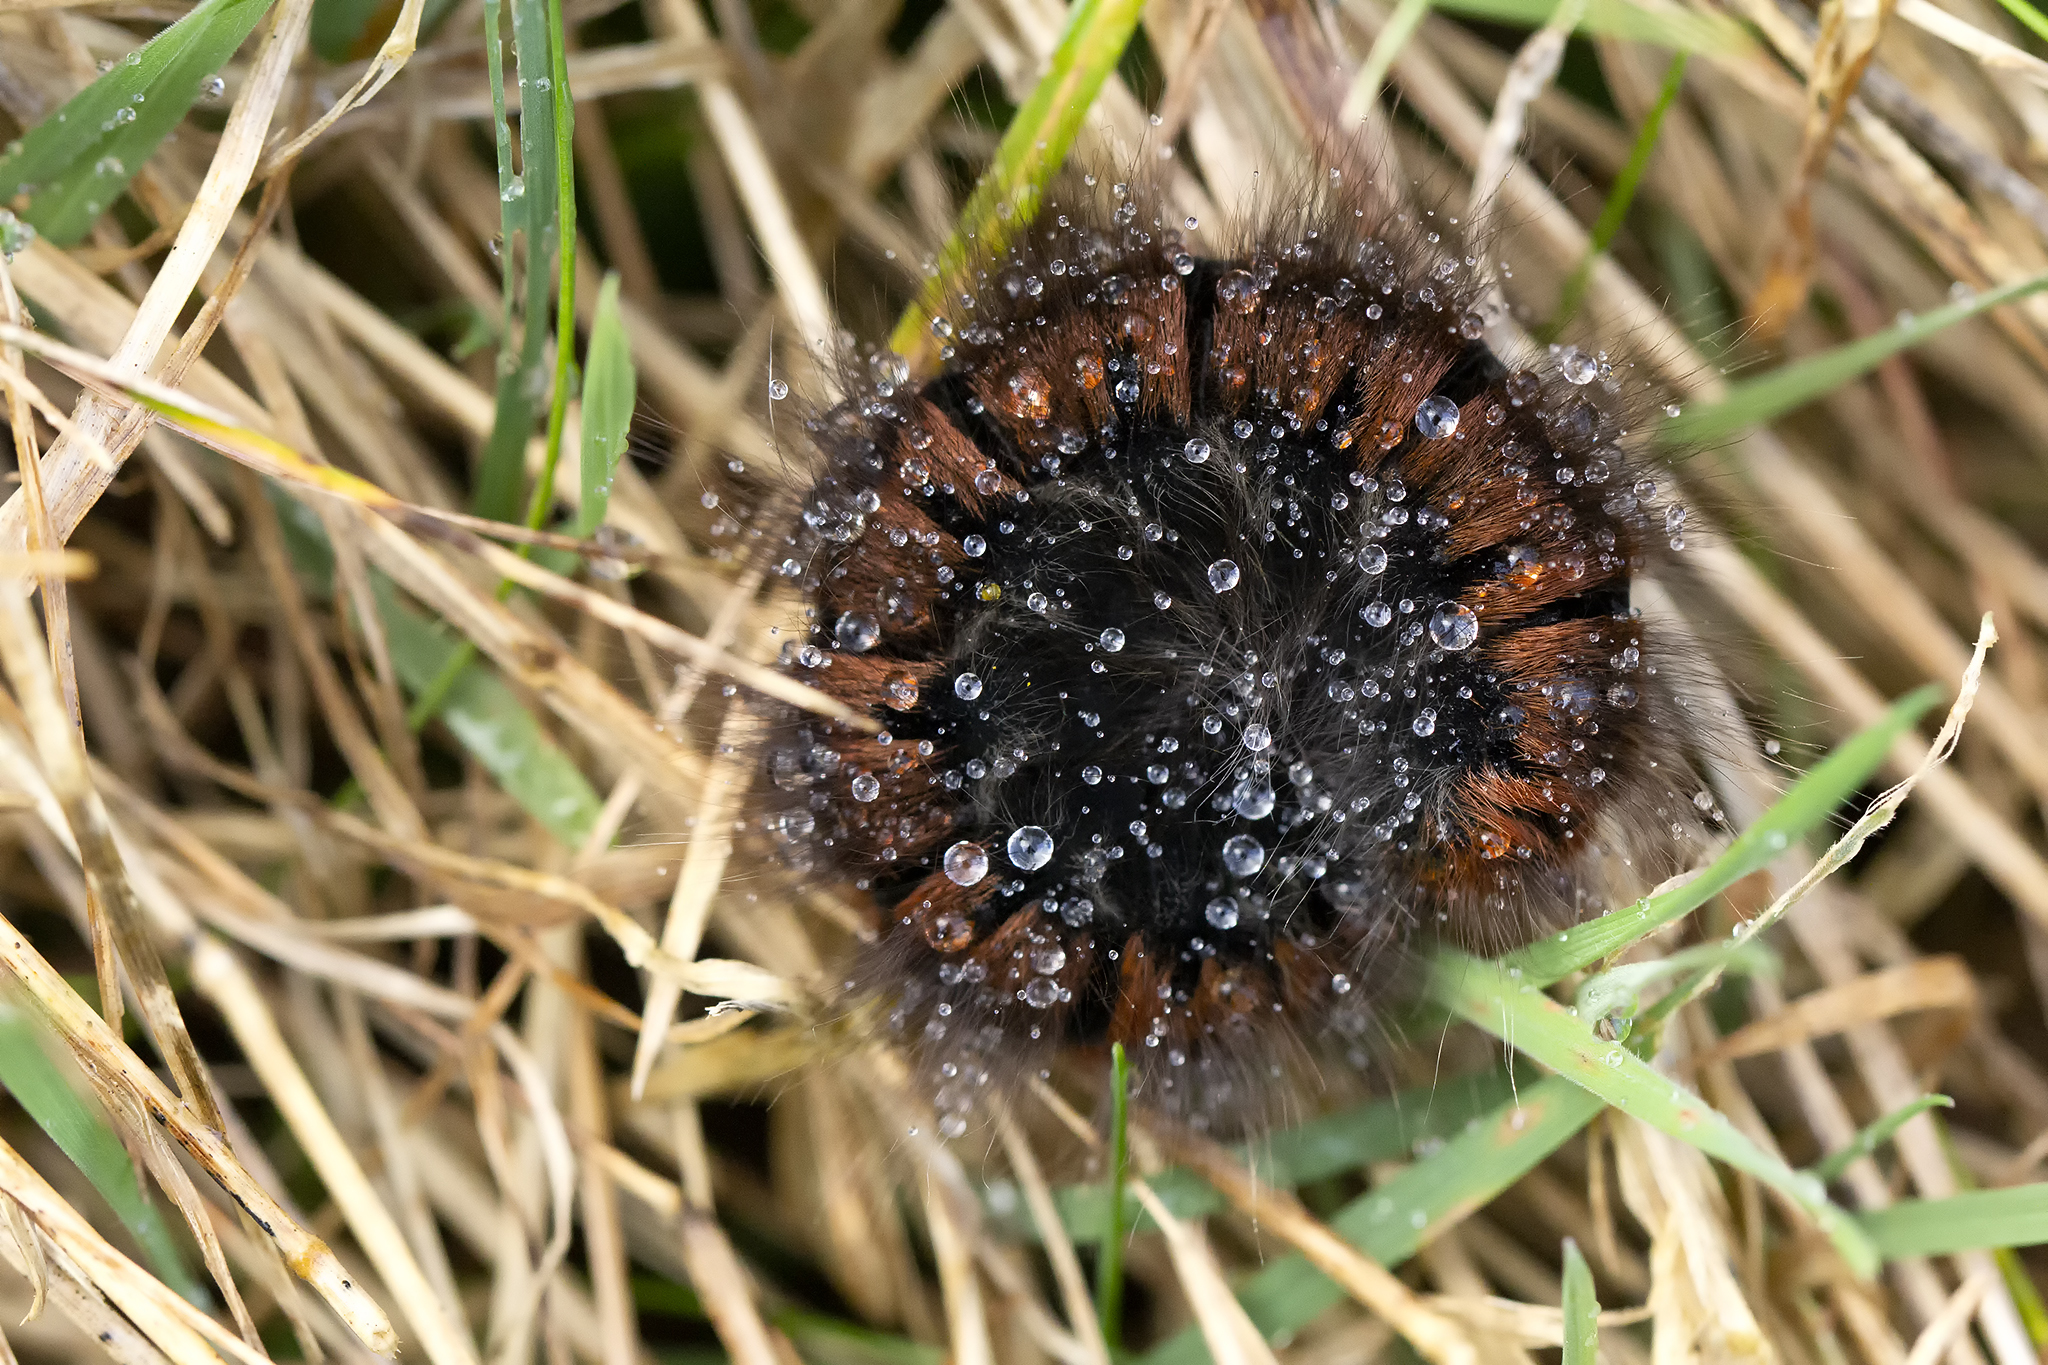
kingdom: Animalia
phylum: Arthropoda
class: Insecta
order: Lepidoptera
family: Lasiocampidae
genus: Macrothylacia
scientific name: Macrothylacia rubi
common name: Fox moth
